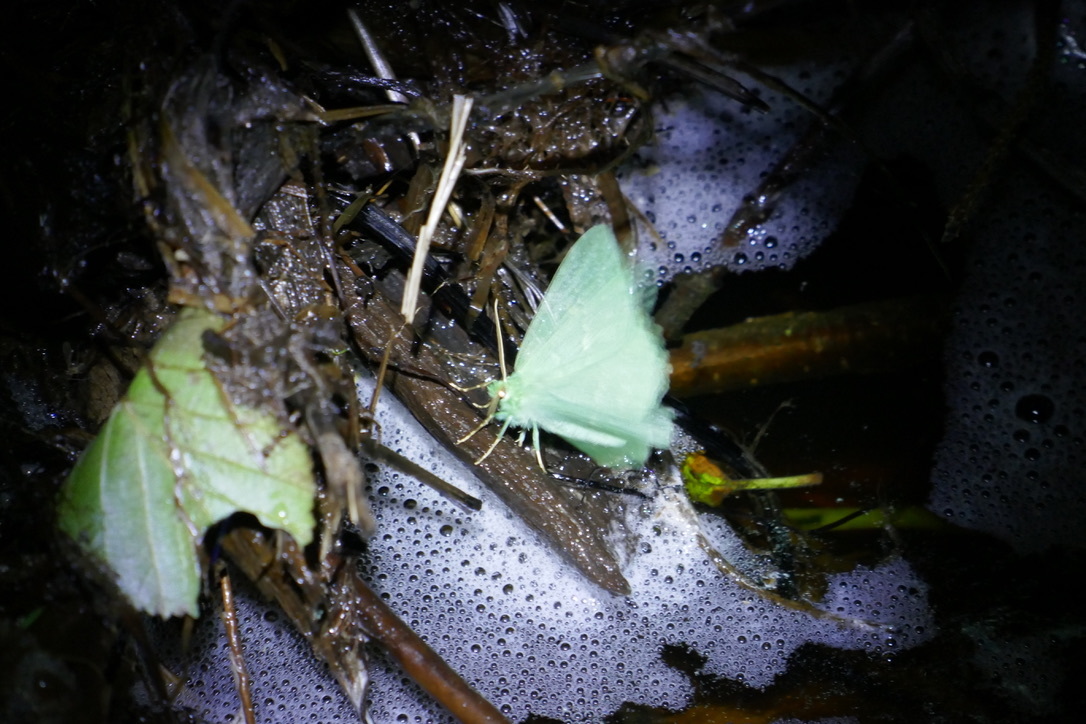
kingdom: Animalia
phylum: Arthropoda
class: Insecta
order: Lepidoptera
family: Geometridae
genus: Geometra
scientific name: Geometra papilionaria
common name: Large emerald
